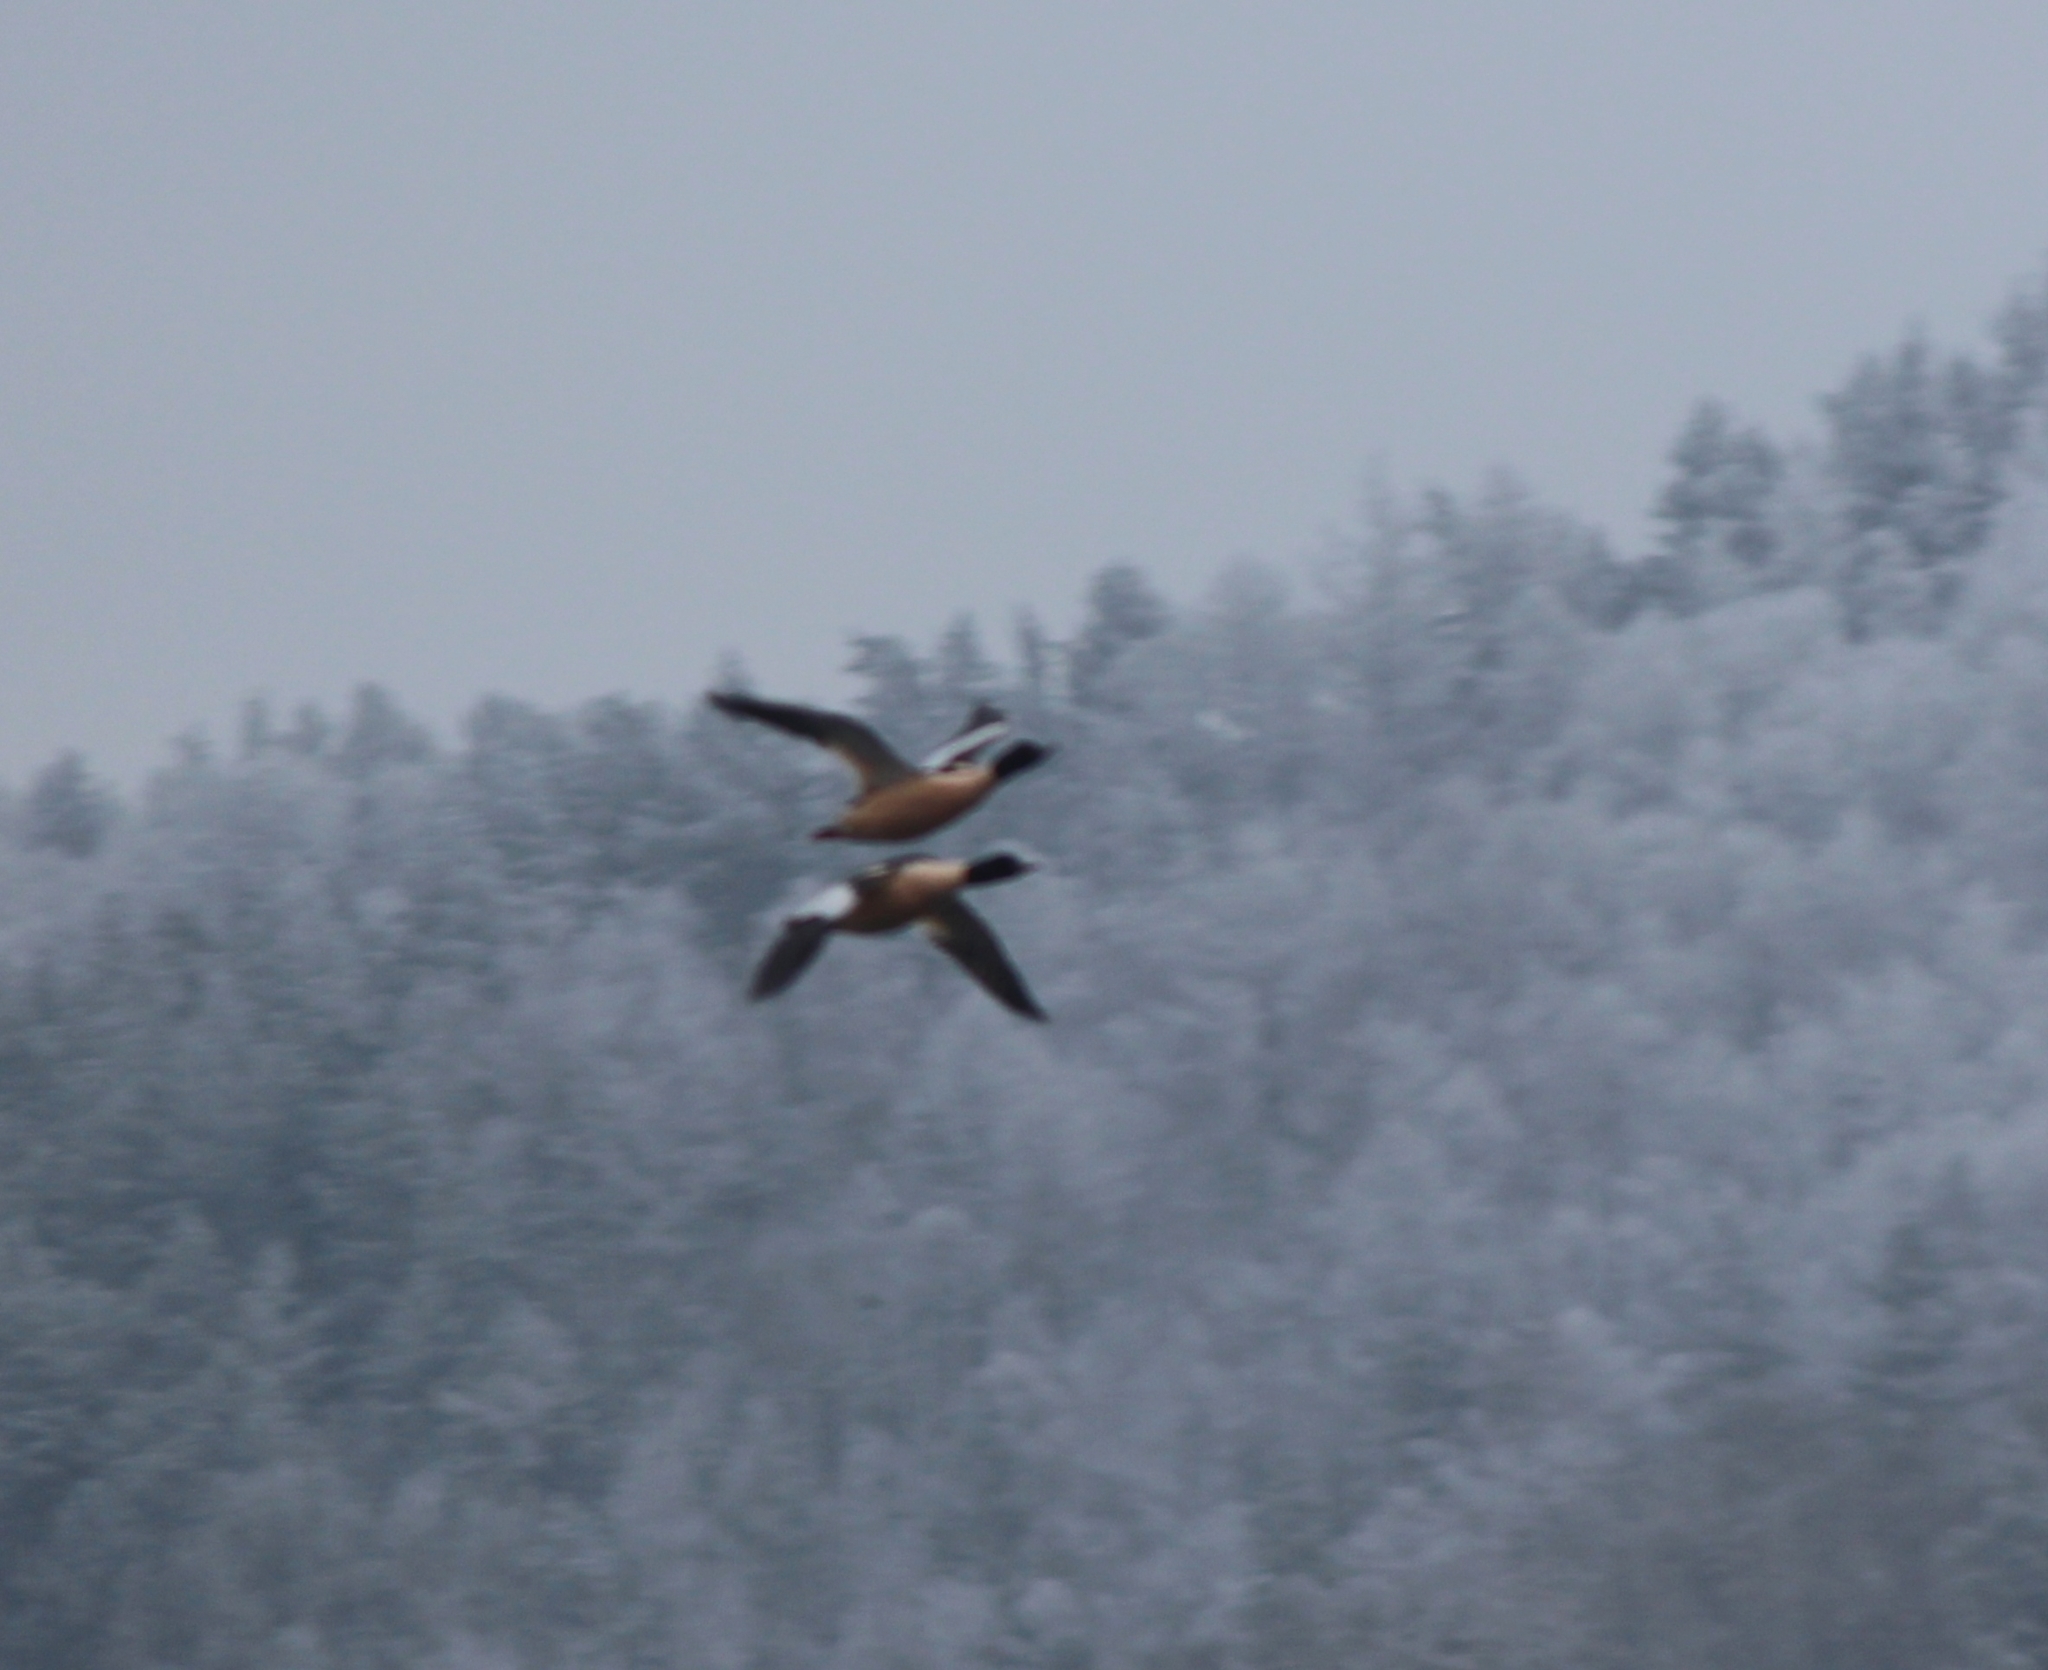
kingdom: Animalia
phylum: Chordata
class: Aves
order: Anseriformes
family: Anatidae
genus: Mergus
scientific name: Mergus merganser
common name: Common merganser
